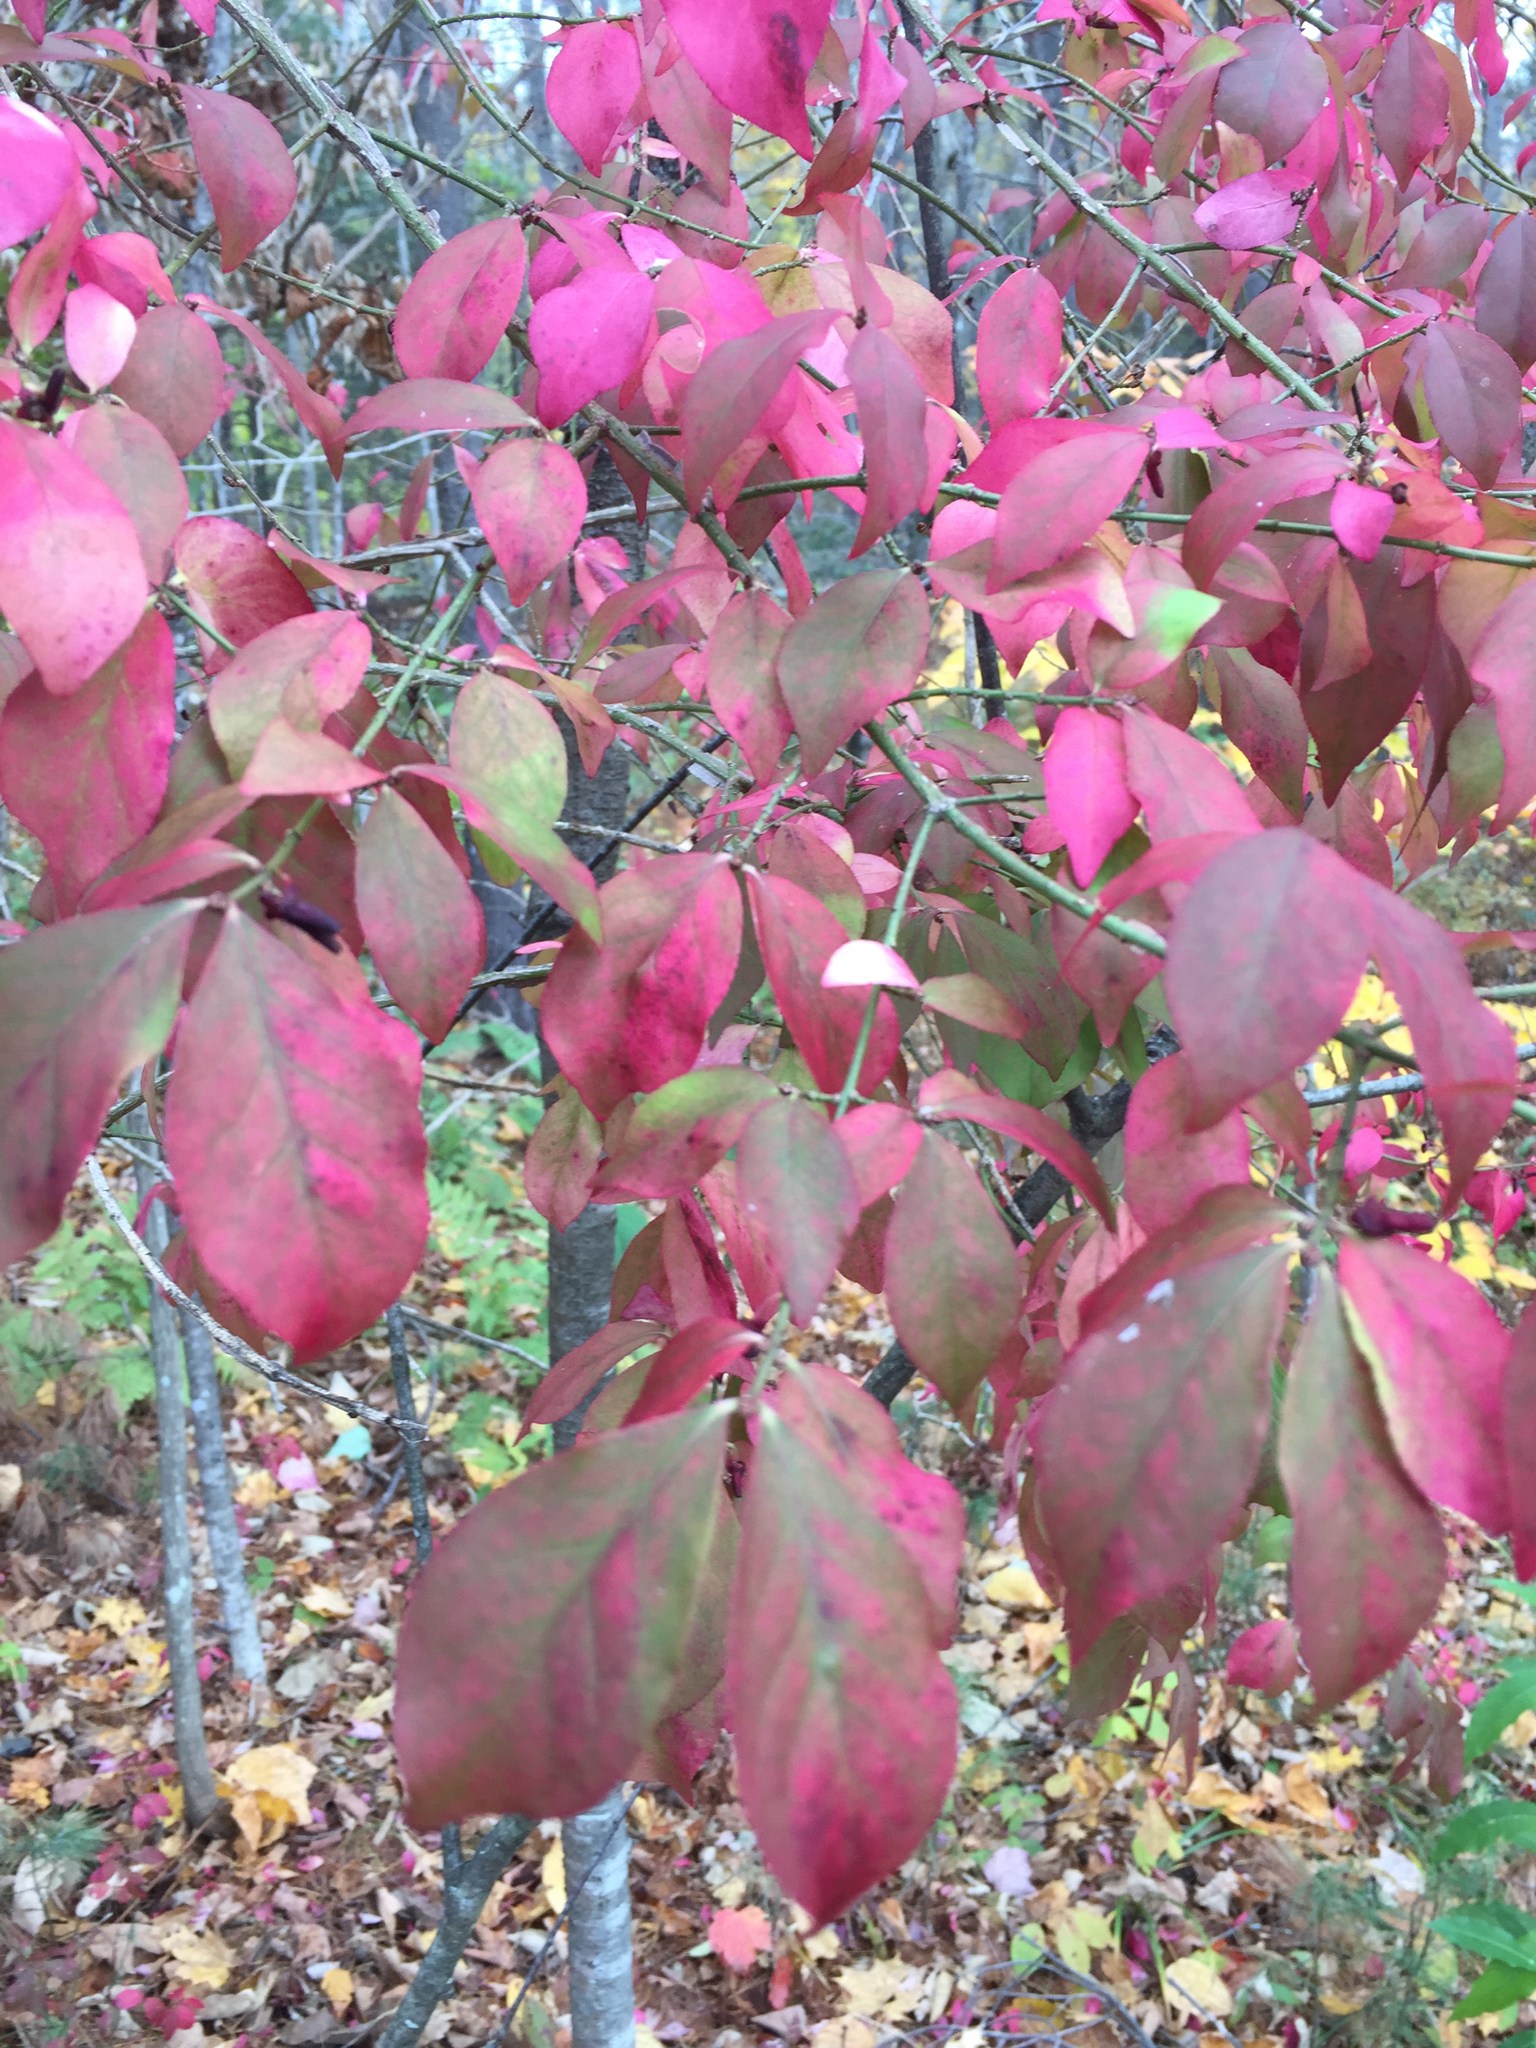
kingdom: Plantae
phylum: Tracheophyta
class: Magnoliopsida
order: Celastrales
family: Celastraceae
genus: Euonymus
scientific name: Euonymus alatus
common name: Winged euonymus
